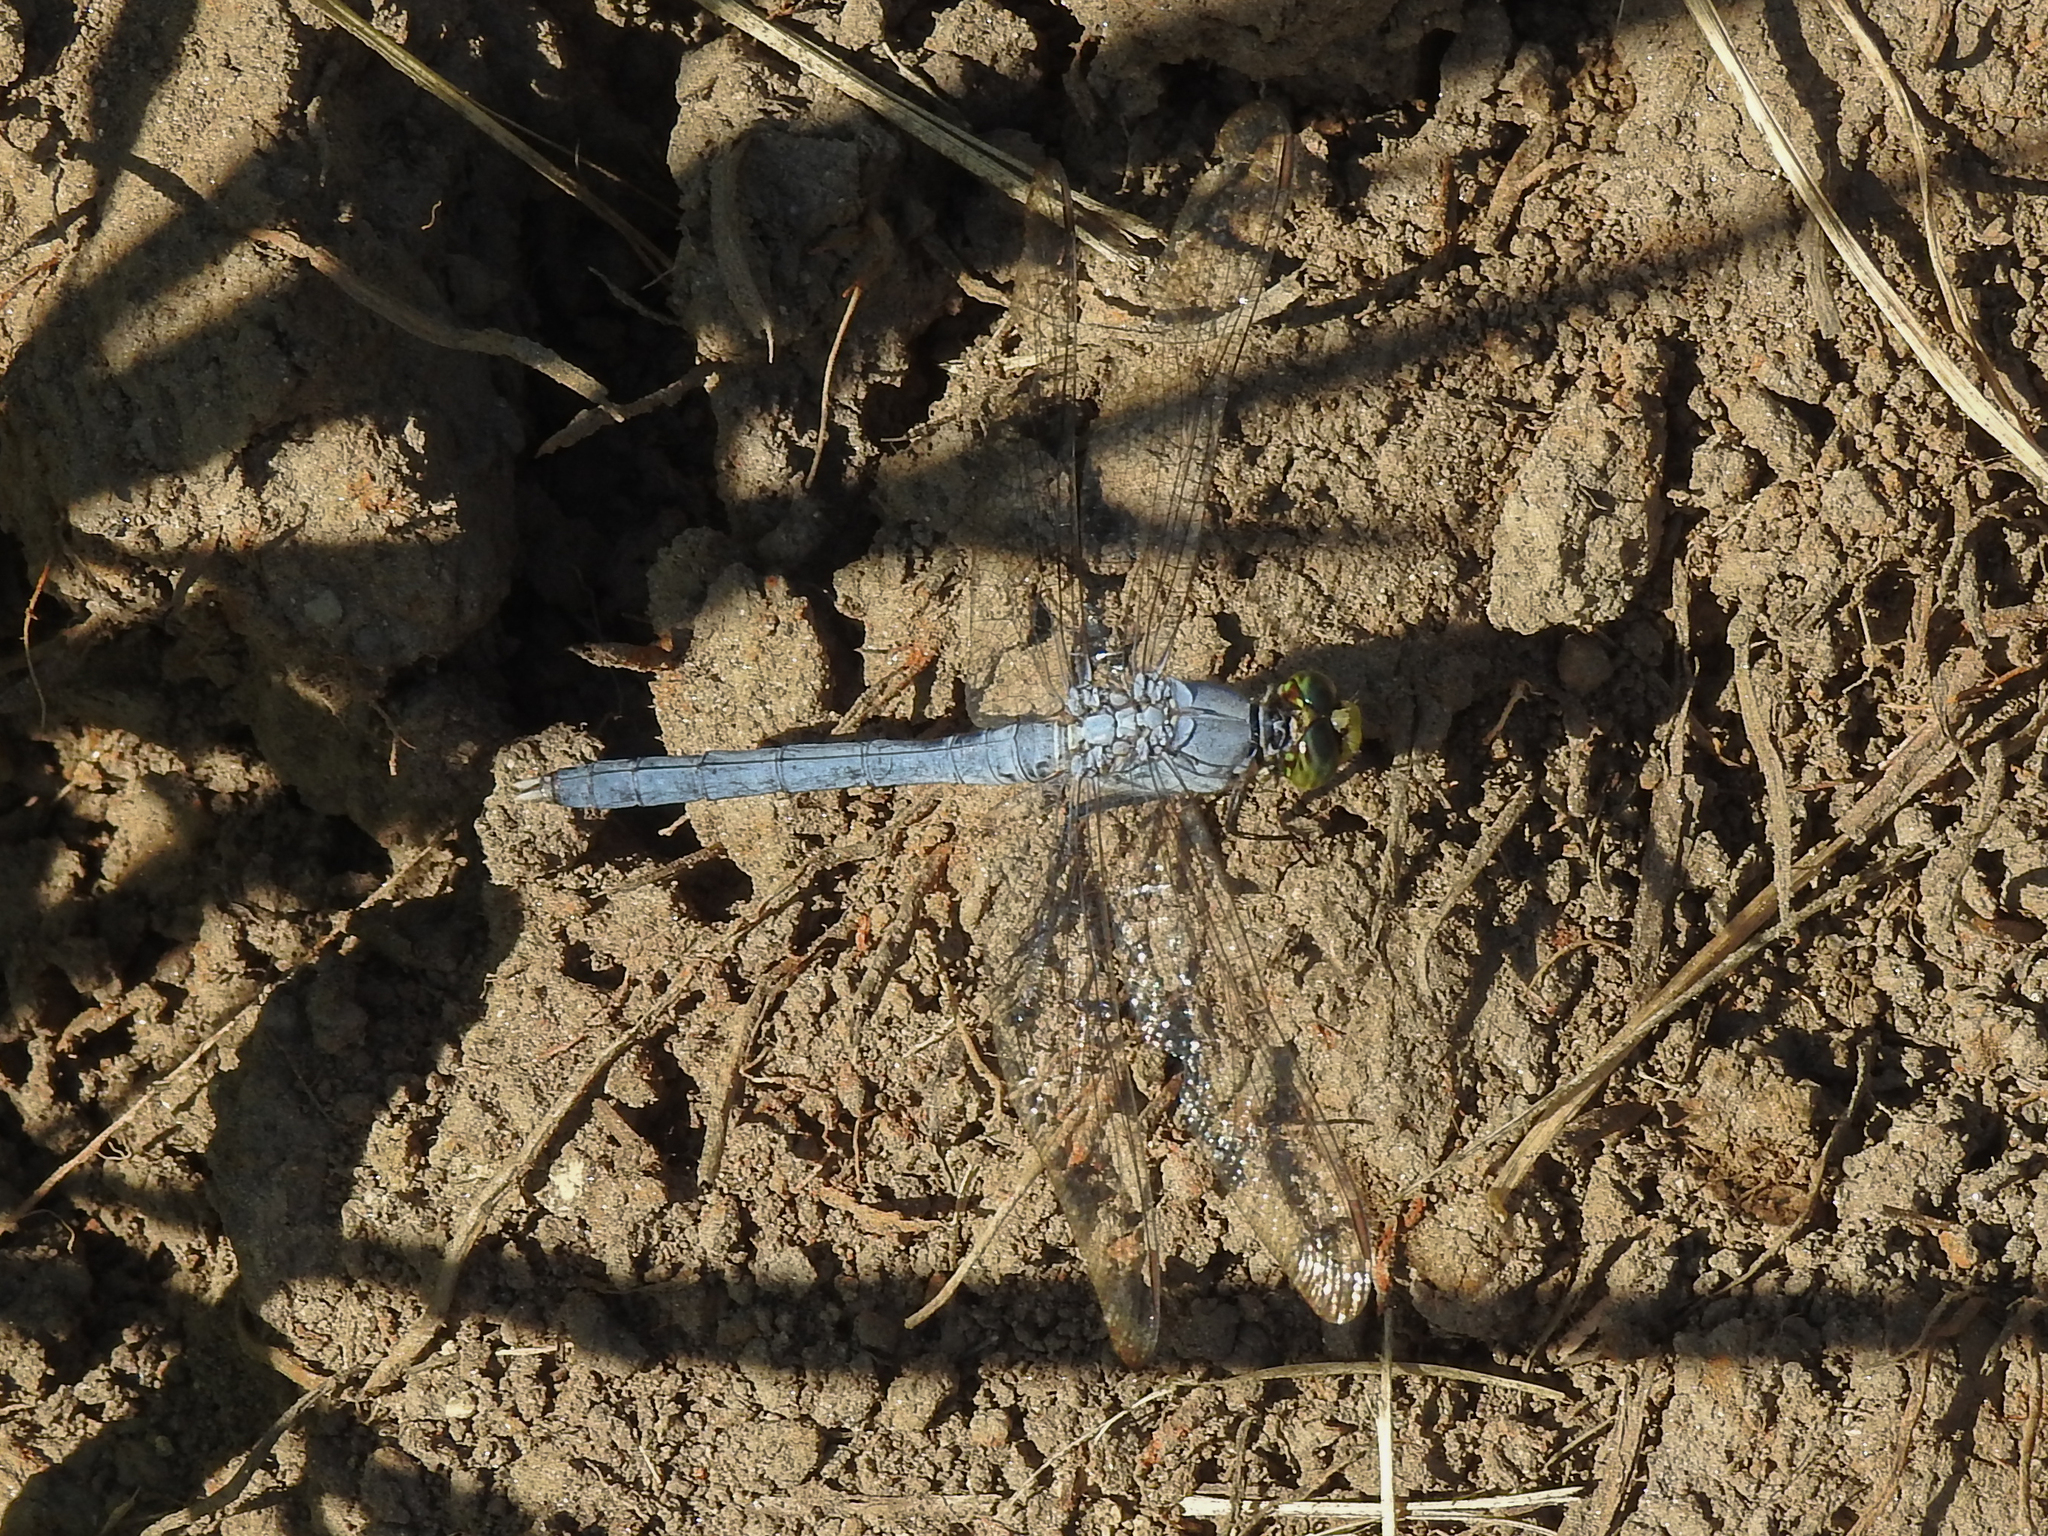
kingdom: Animalia
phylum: Arthropoda
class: Insecta
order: Odonata
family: Libellulidae
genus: Erythemis
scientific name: Erythemis simplicicollis
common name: Eastern pondhawk
